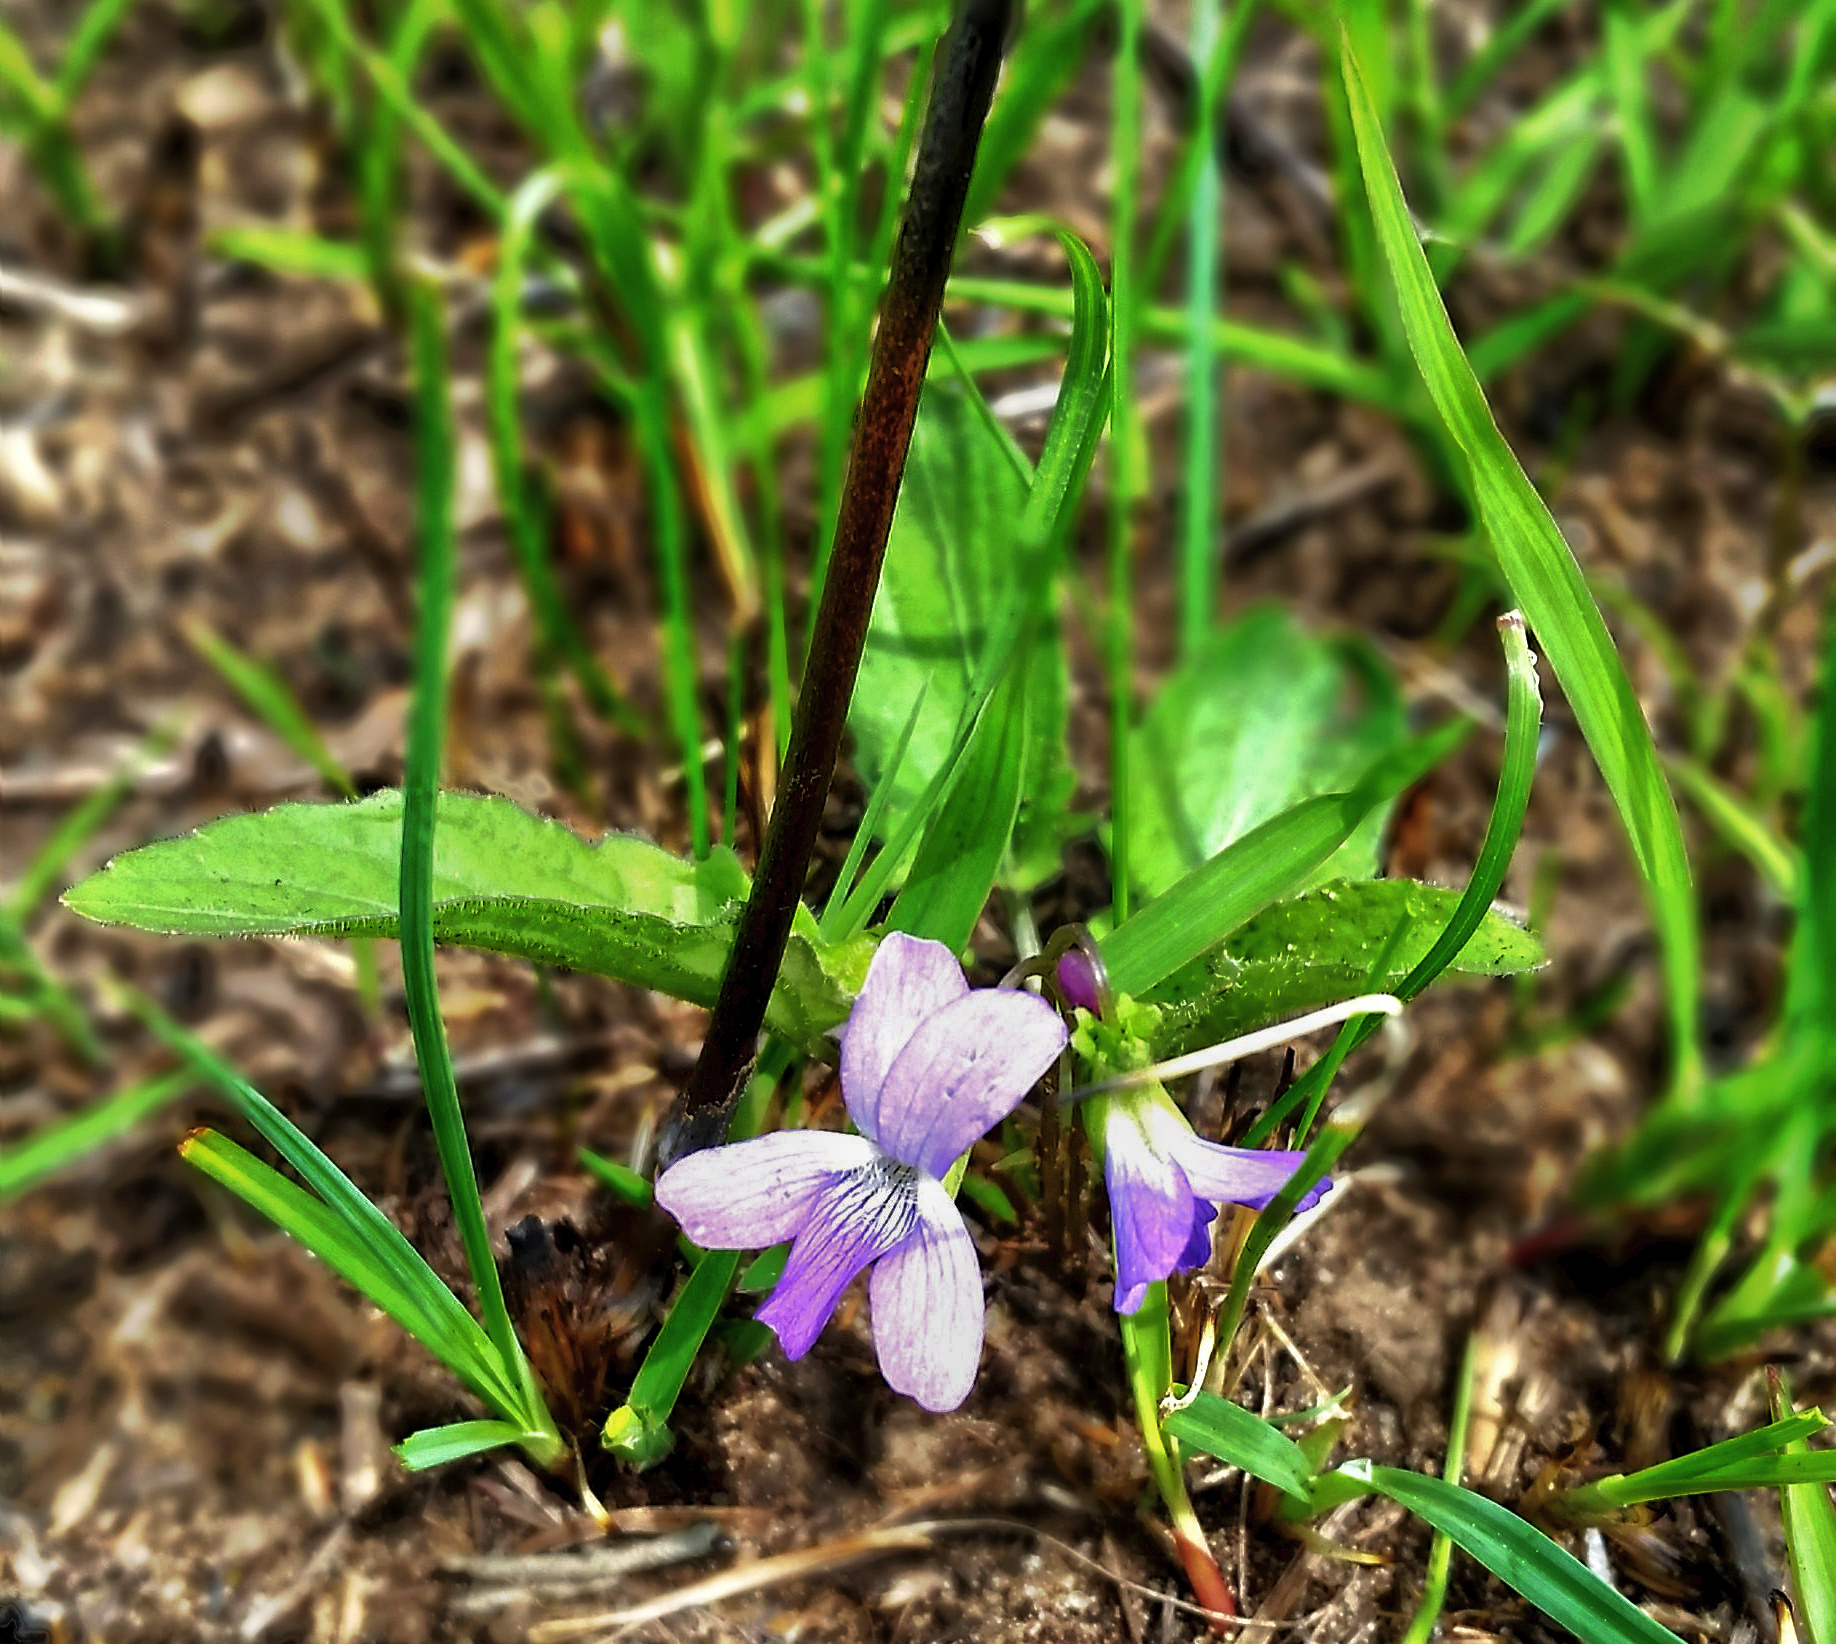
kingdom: Plantae
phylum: Tracheophyta
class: Magnoliopsida
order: Malpighiales
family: Violaceae
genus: Viola
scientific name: Viola sagittata
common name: Arrowhead violet
